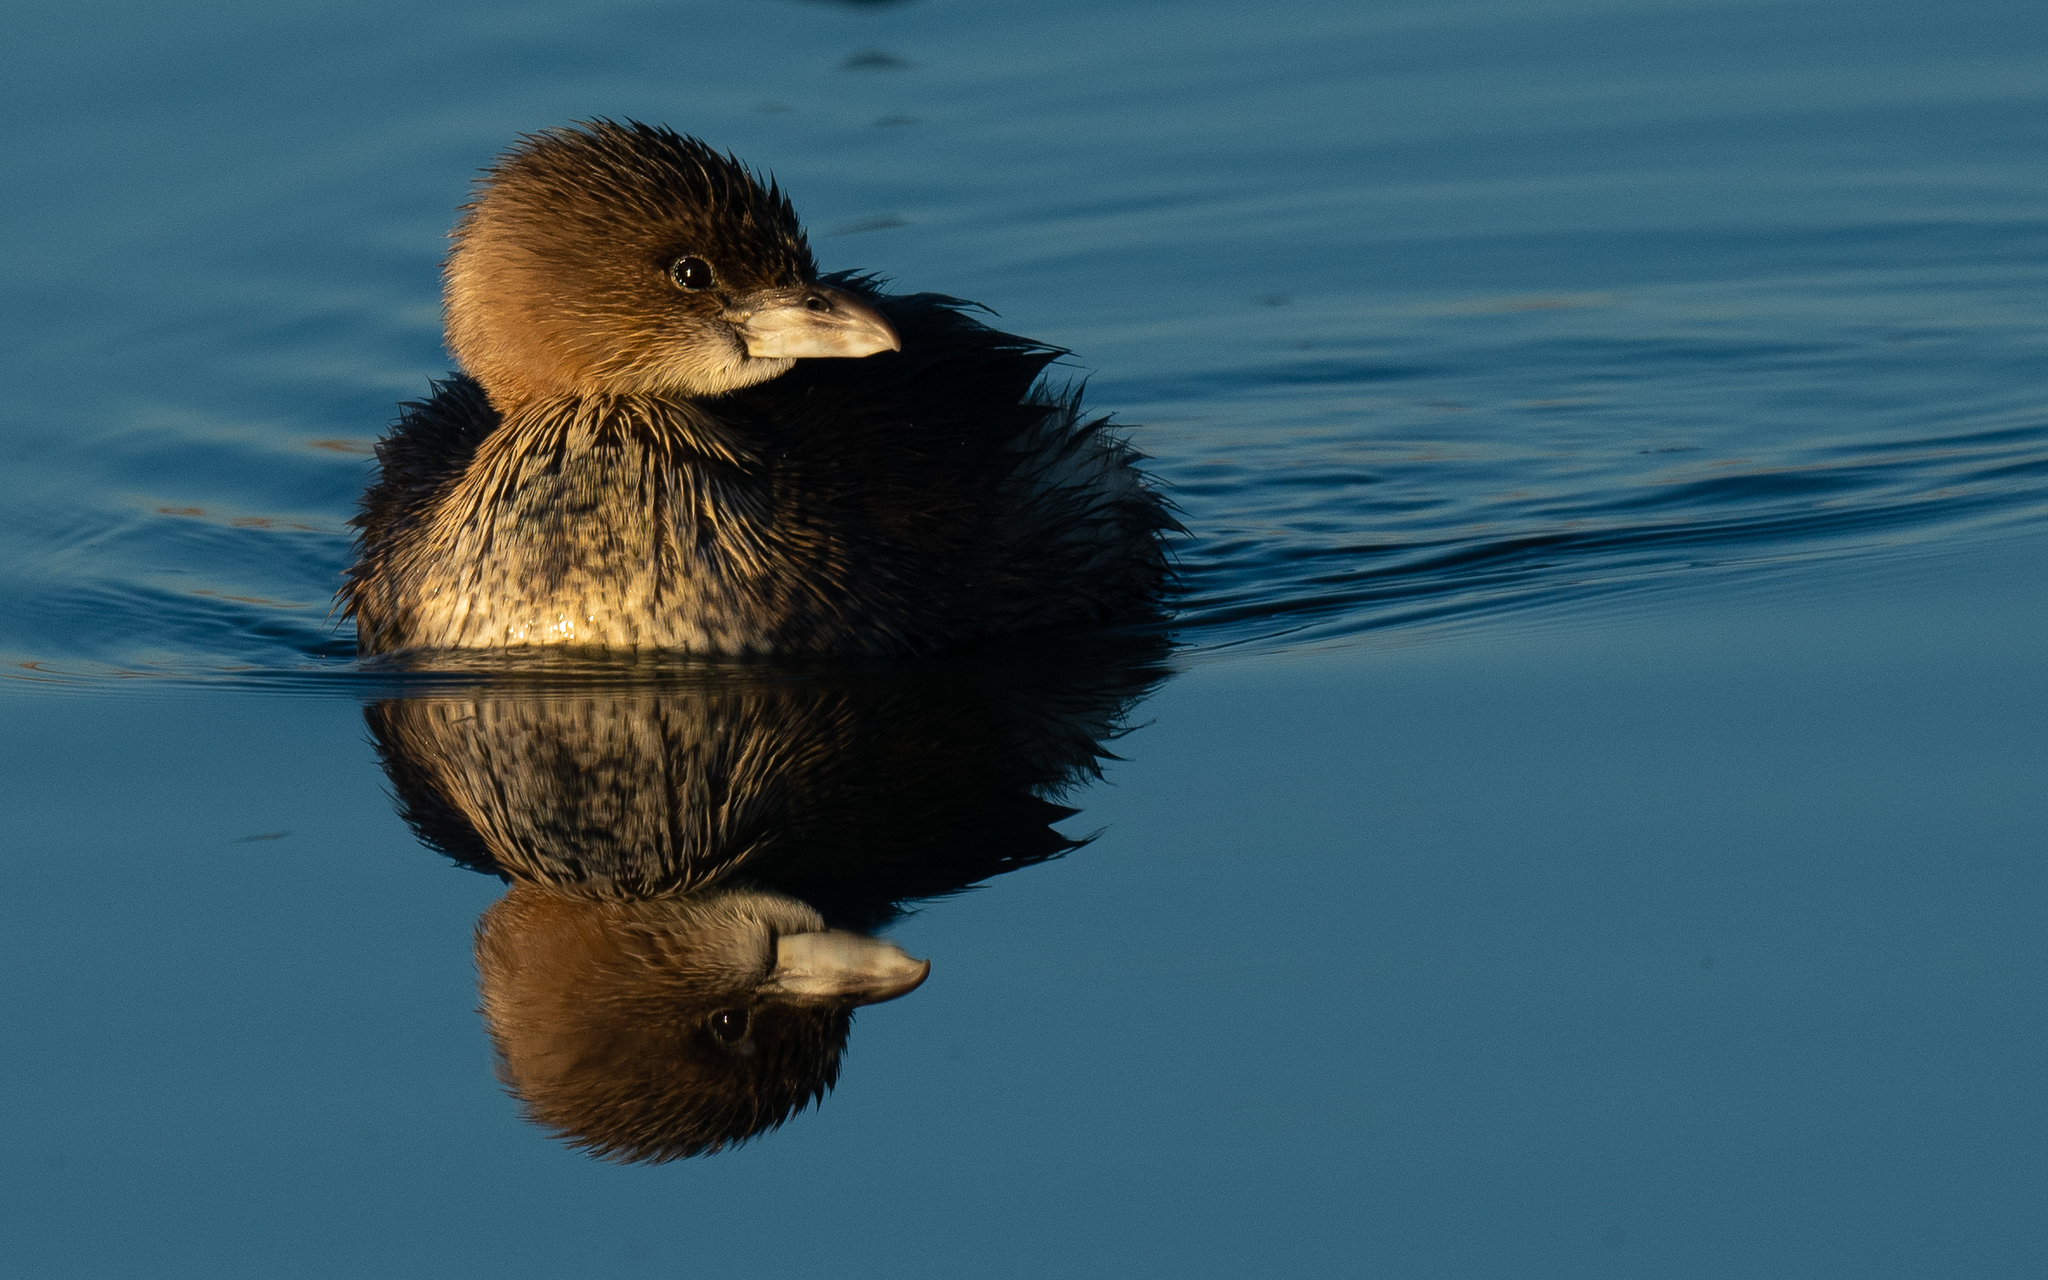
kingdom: Animalia
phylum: Chordata
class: Aves
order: Podicipediformes
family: Podicipedidae
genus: Podilymbus
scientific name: Podilymbus podiceps
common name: Pied-billed grebe
